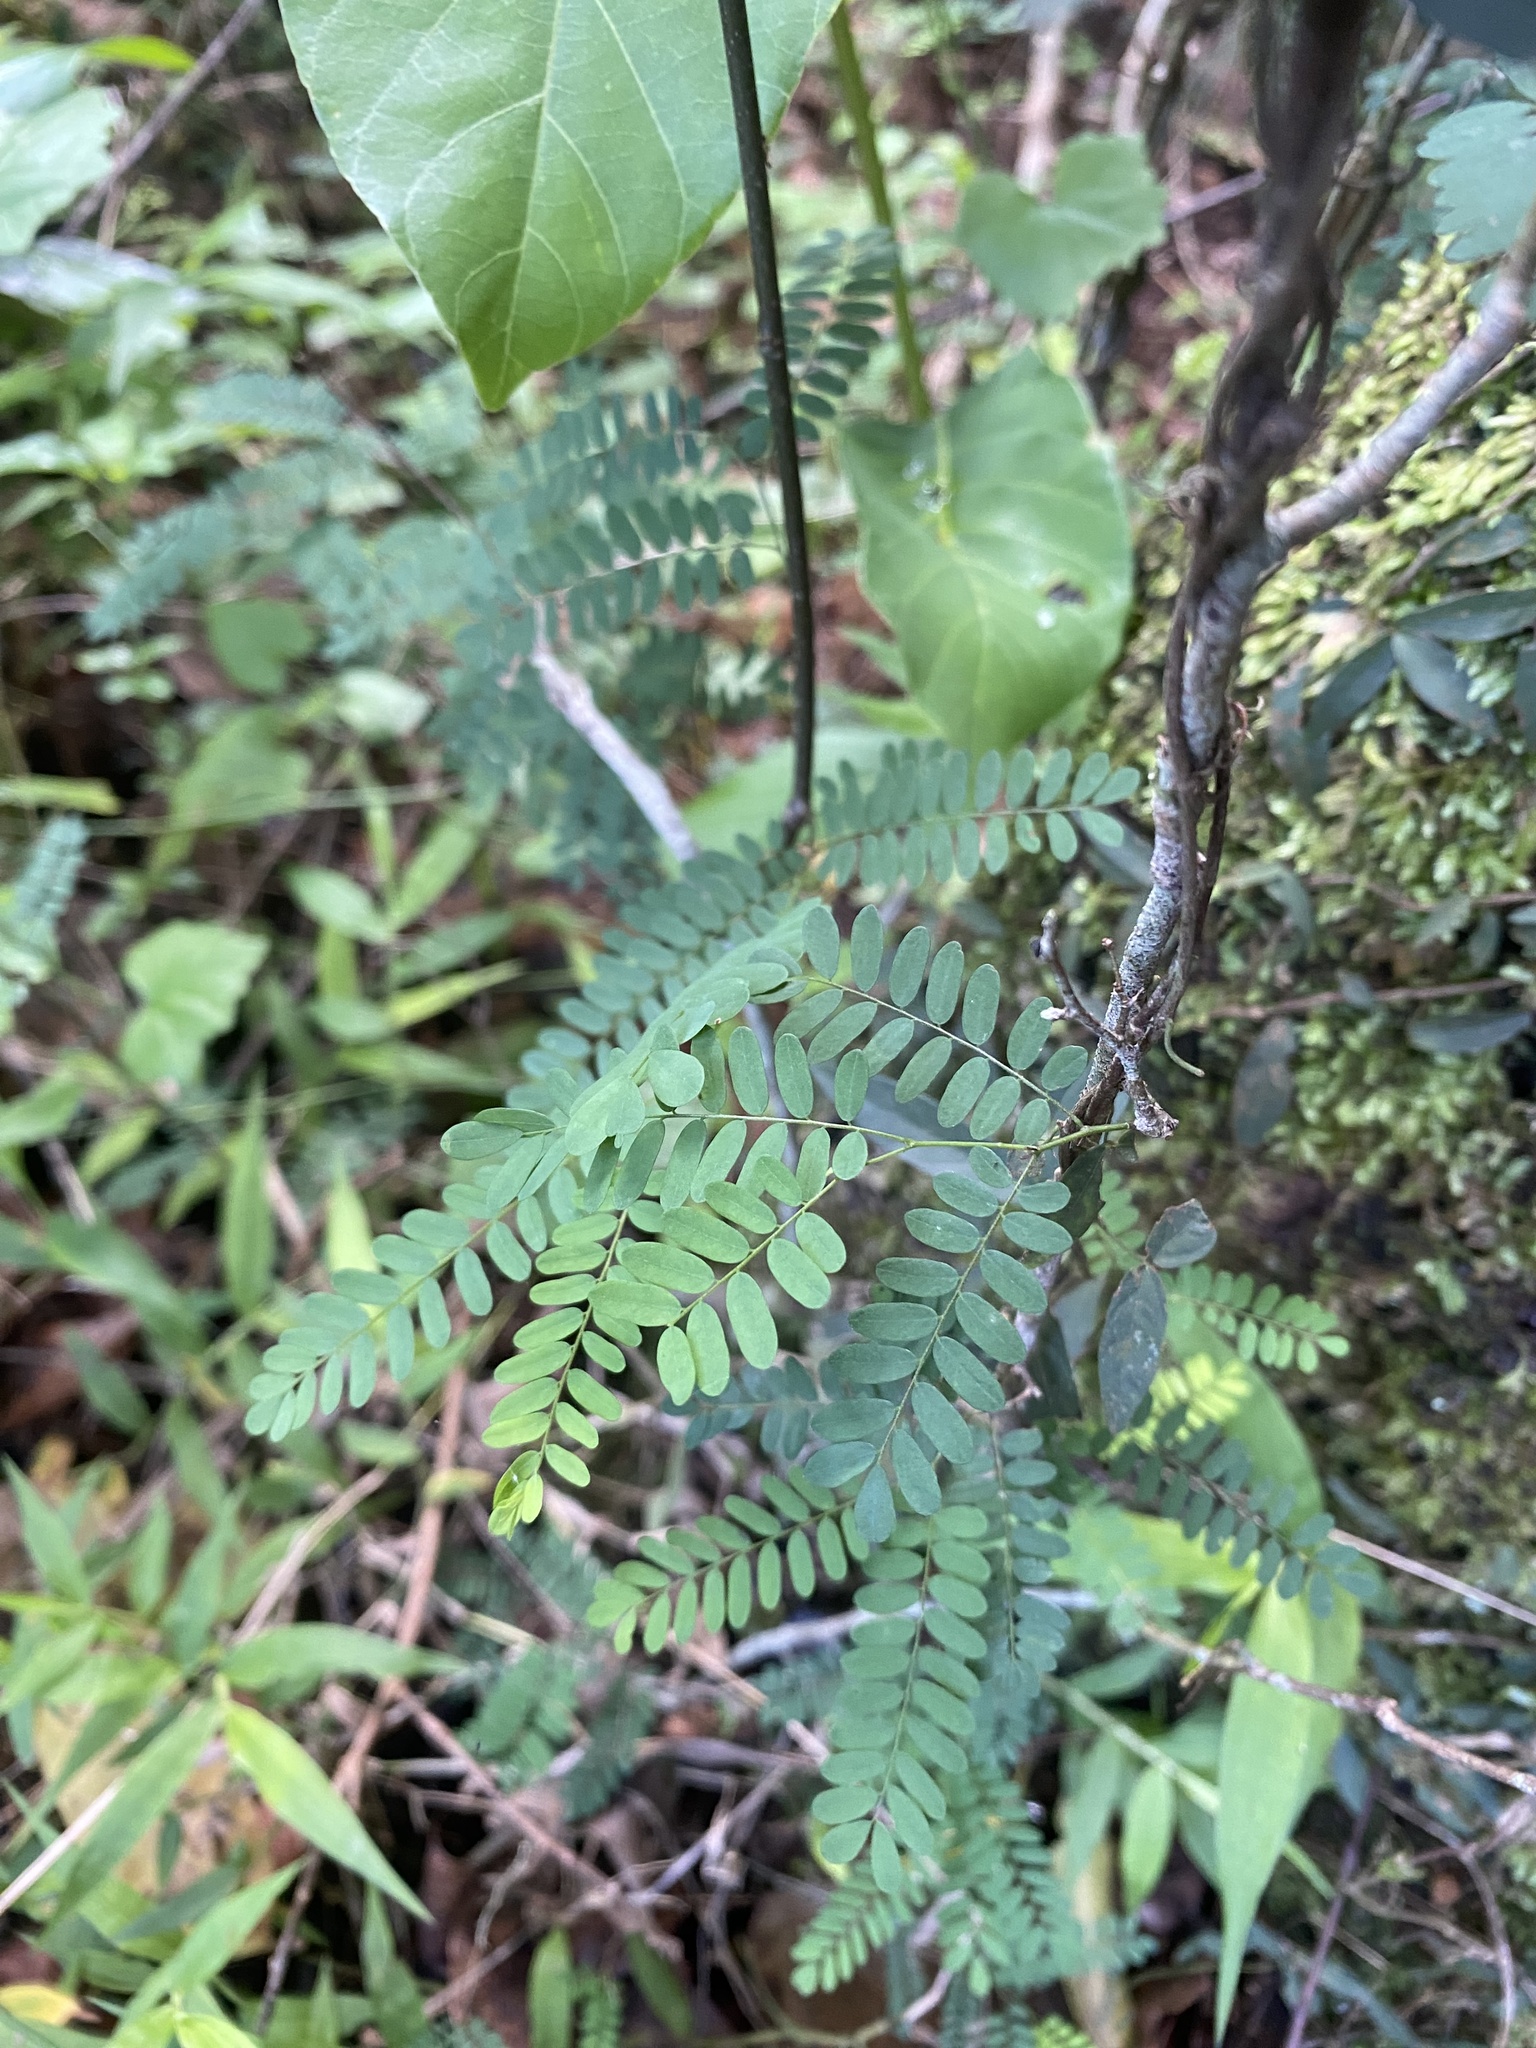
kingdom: Plantae
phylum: Tracheophyta
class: Magnoliopsida
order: Fabales
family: Fabaceae
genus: Dalbergia
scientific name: Dalbergia armata
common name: Hluhluwe climber
